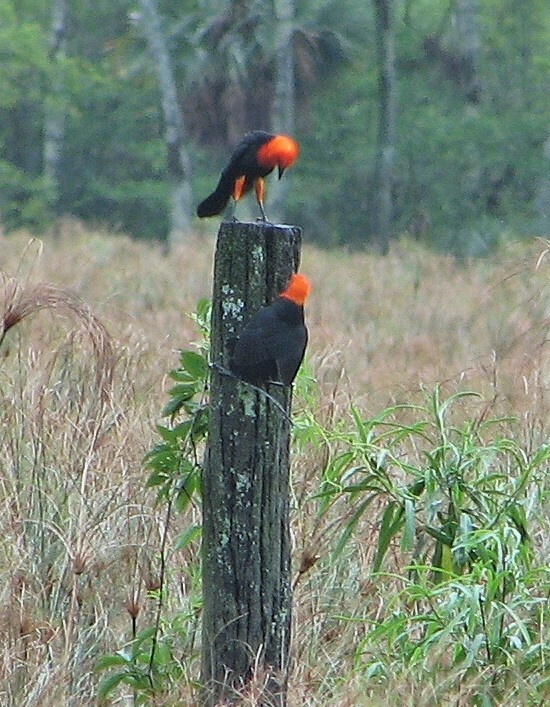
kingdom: Animalia
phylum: Chordata
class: Aves
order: Passeriformes
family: Icteridae
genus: Amblyramphus
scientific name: Amblyramphus holosericeus
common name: Scarlet-headed blackbird
